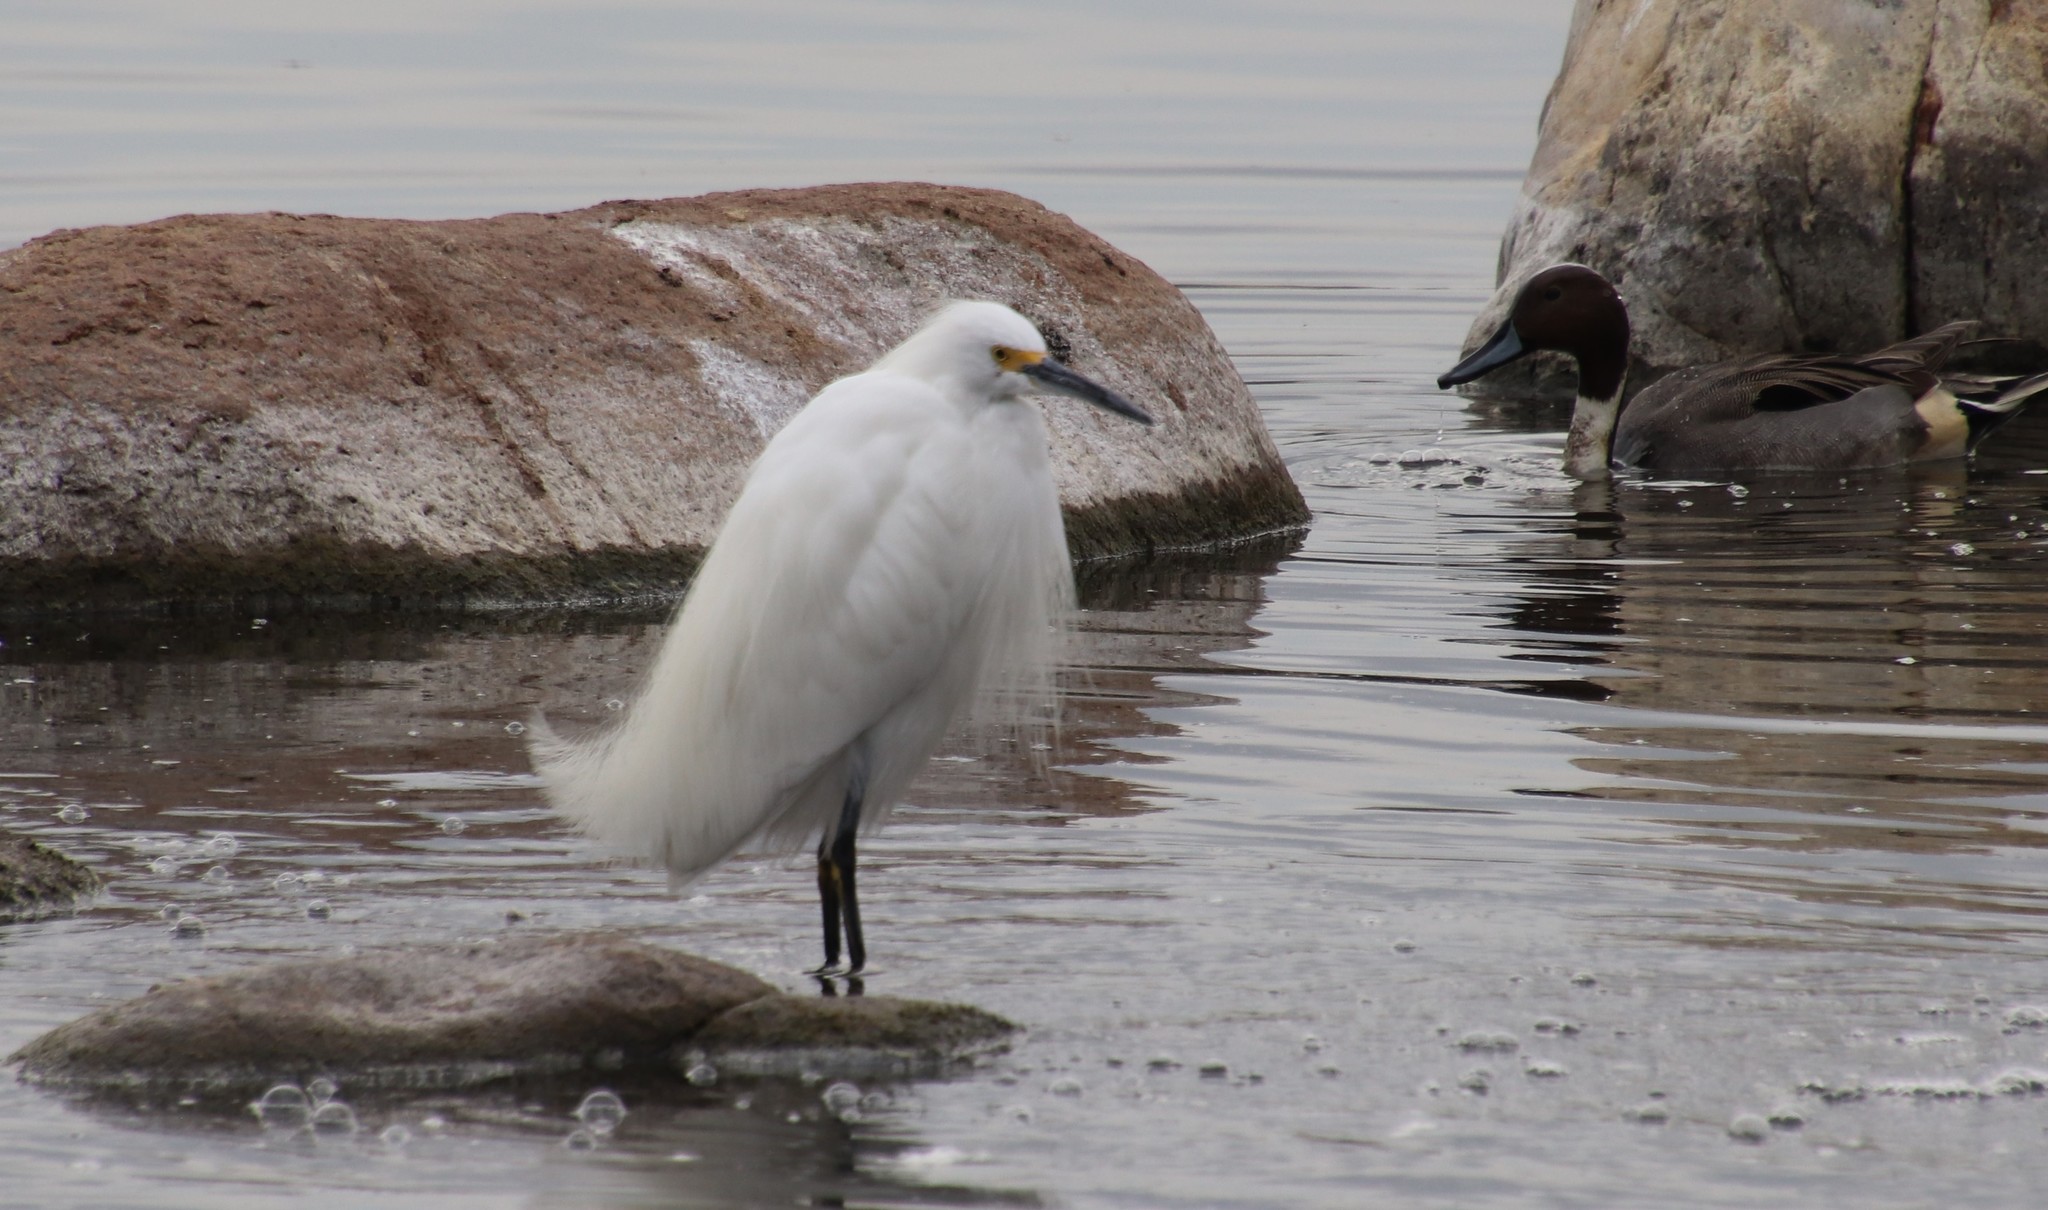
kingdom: Animalia
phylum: Chordata
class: Aves
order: Pelecaniformes
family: Ardeidae
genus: Egretta
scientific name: Egretta thula
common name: Snowy egret
